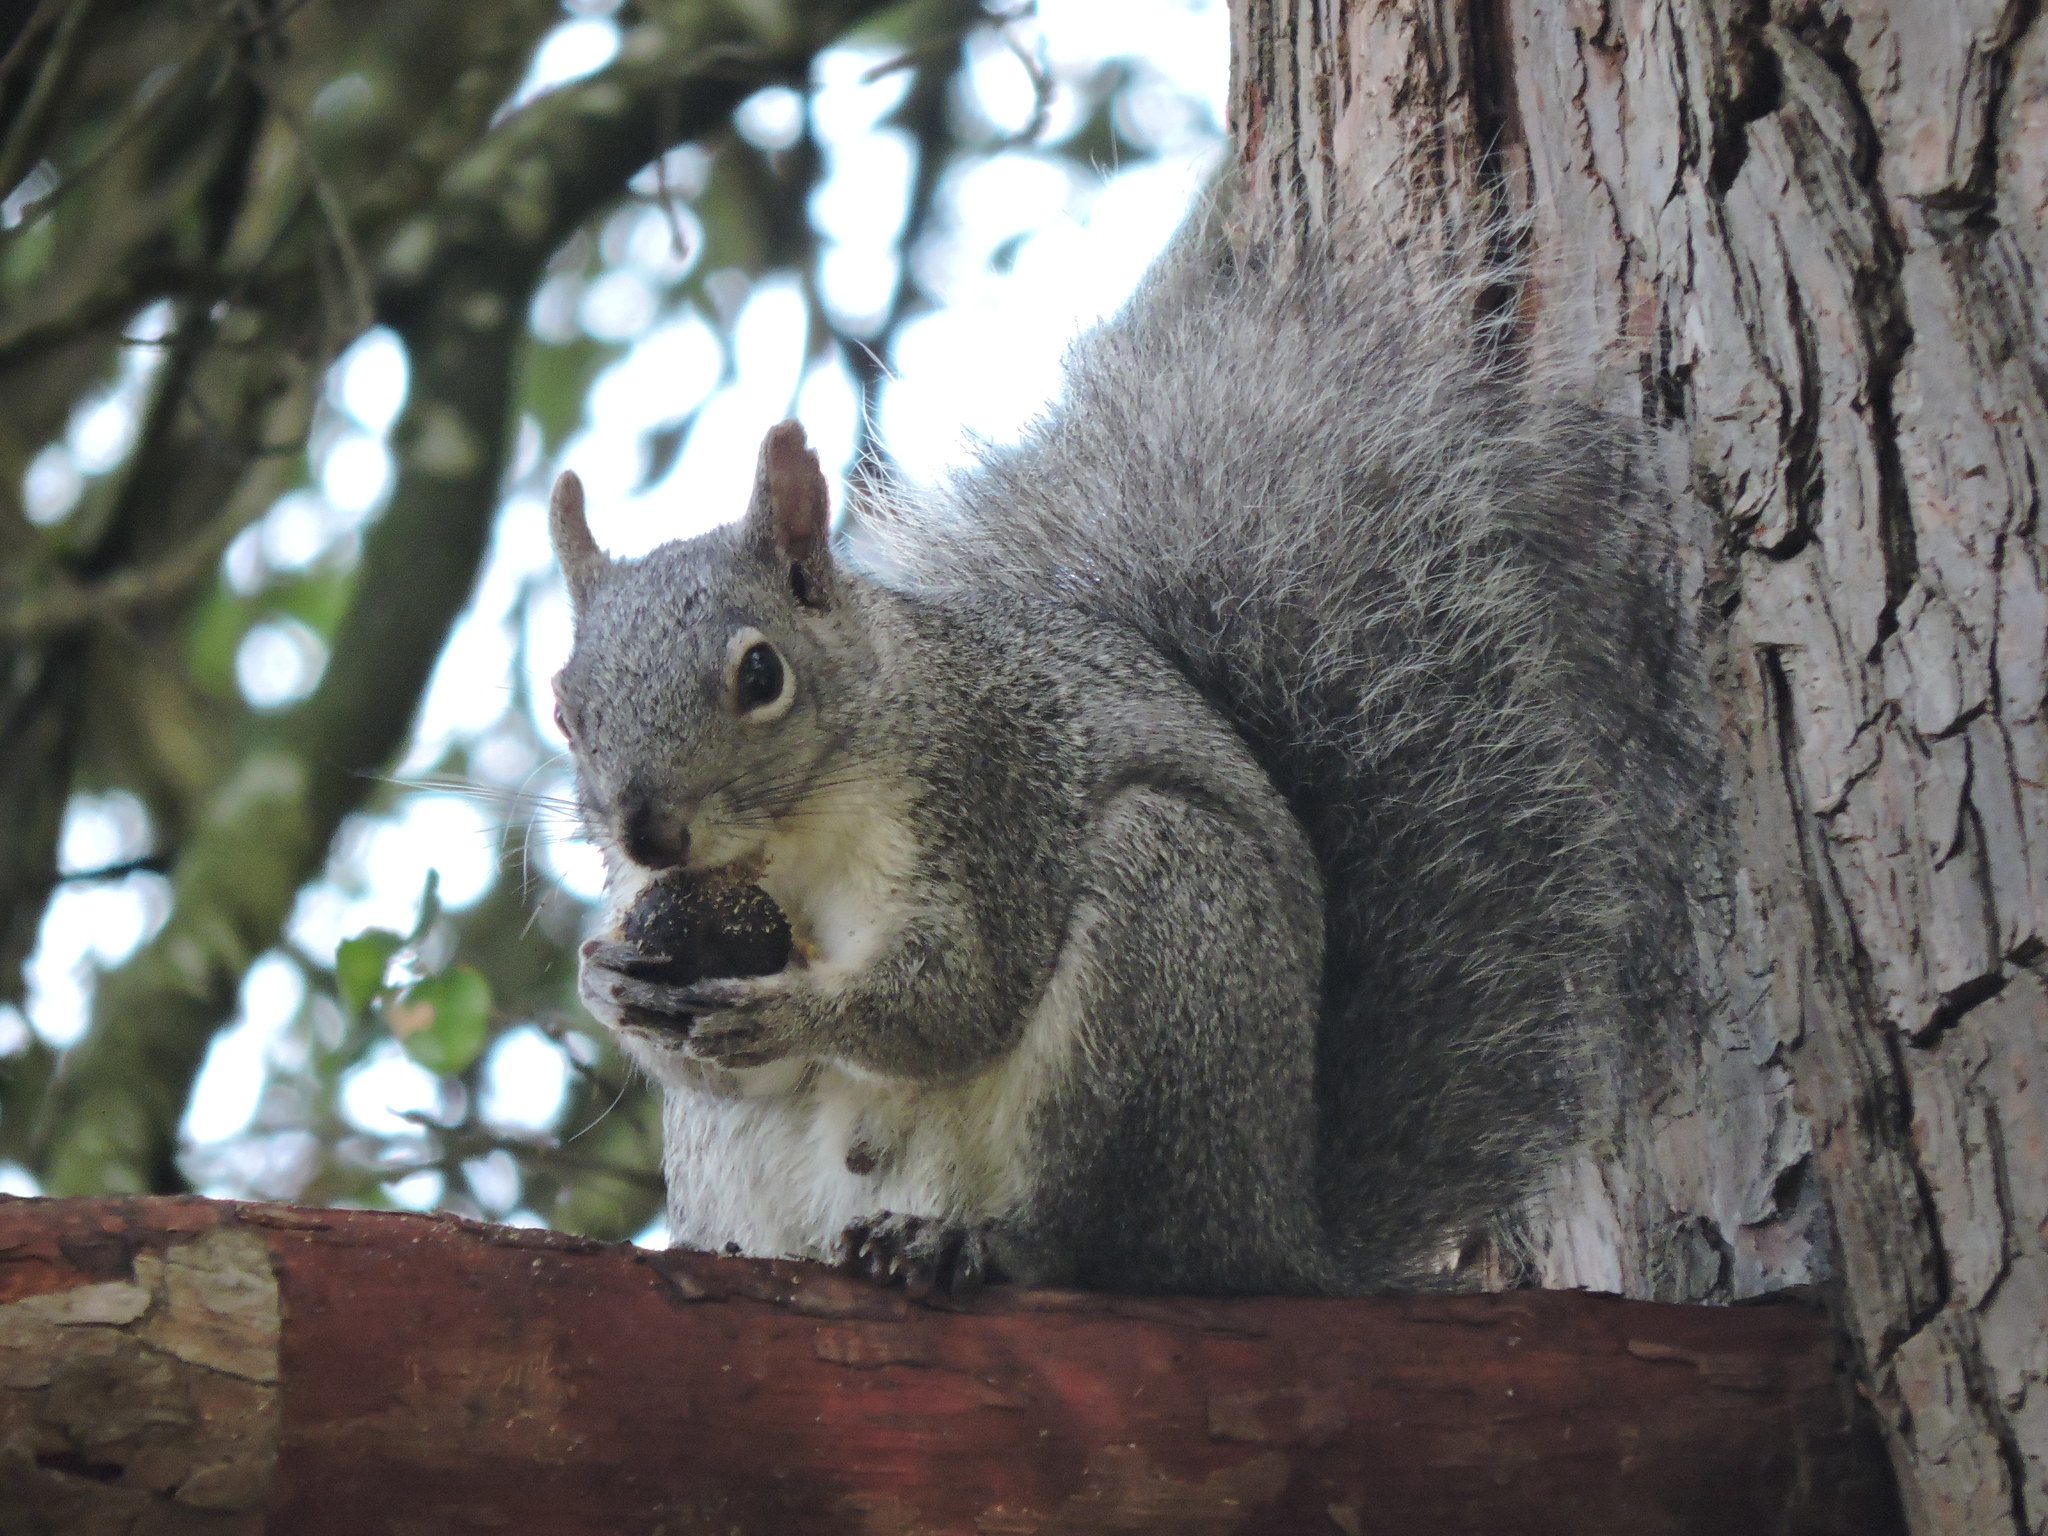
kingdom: Animalia
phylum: Chordata
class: Mammalia
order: Rodentia
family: Sciuridae
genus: Sciurus
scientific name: Sciurus griseus
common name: Western gray squirrel
